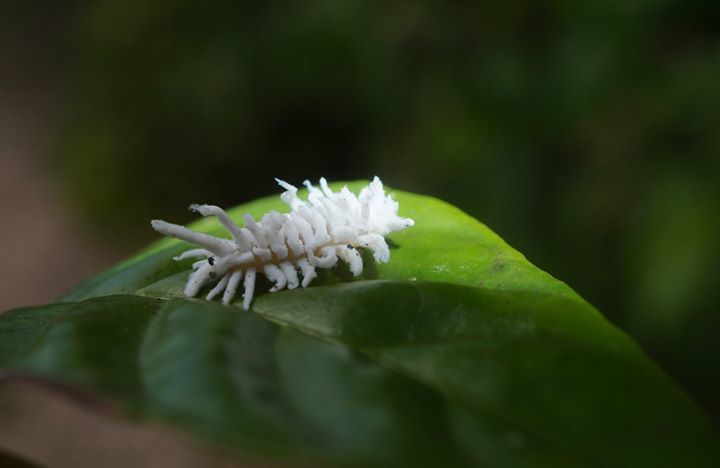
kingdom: Animalia
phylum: Arthropoda
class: Insecta
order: Coleoptera
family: Coccinellidae
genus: Cryptolaemus
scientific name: Cryptolaemus montrouzieri
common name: Mealybug destroyer
